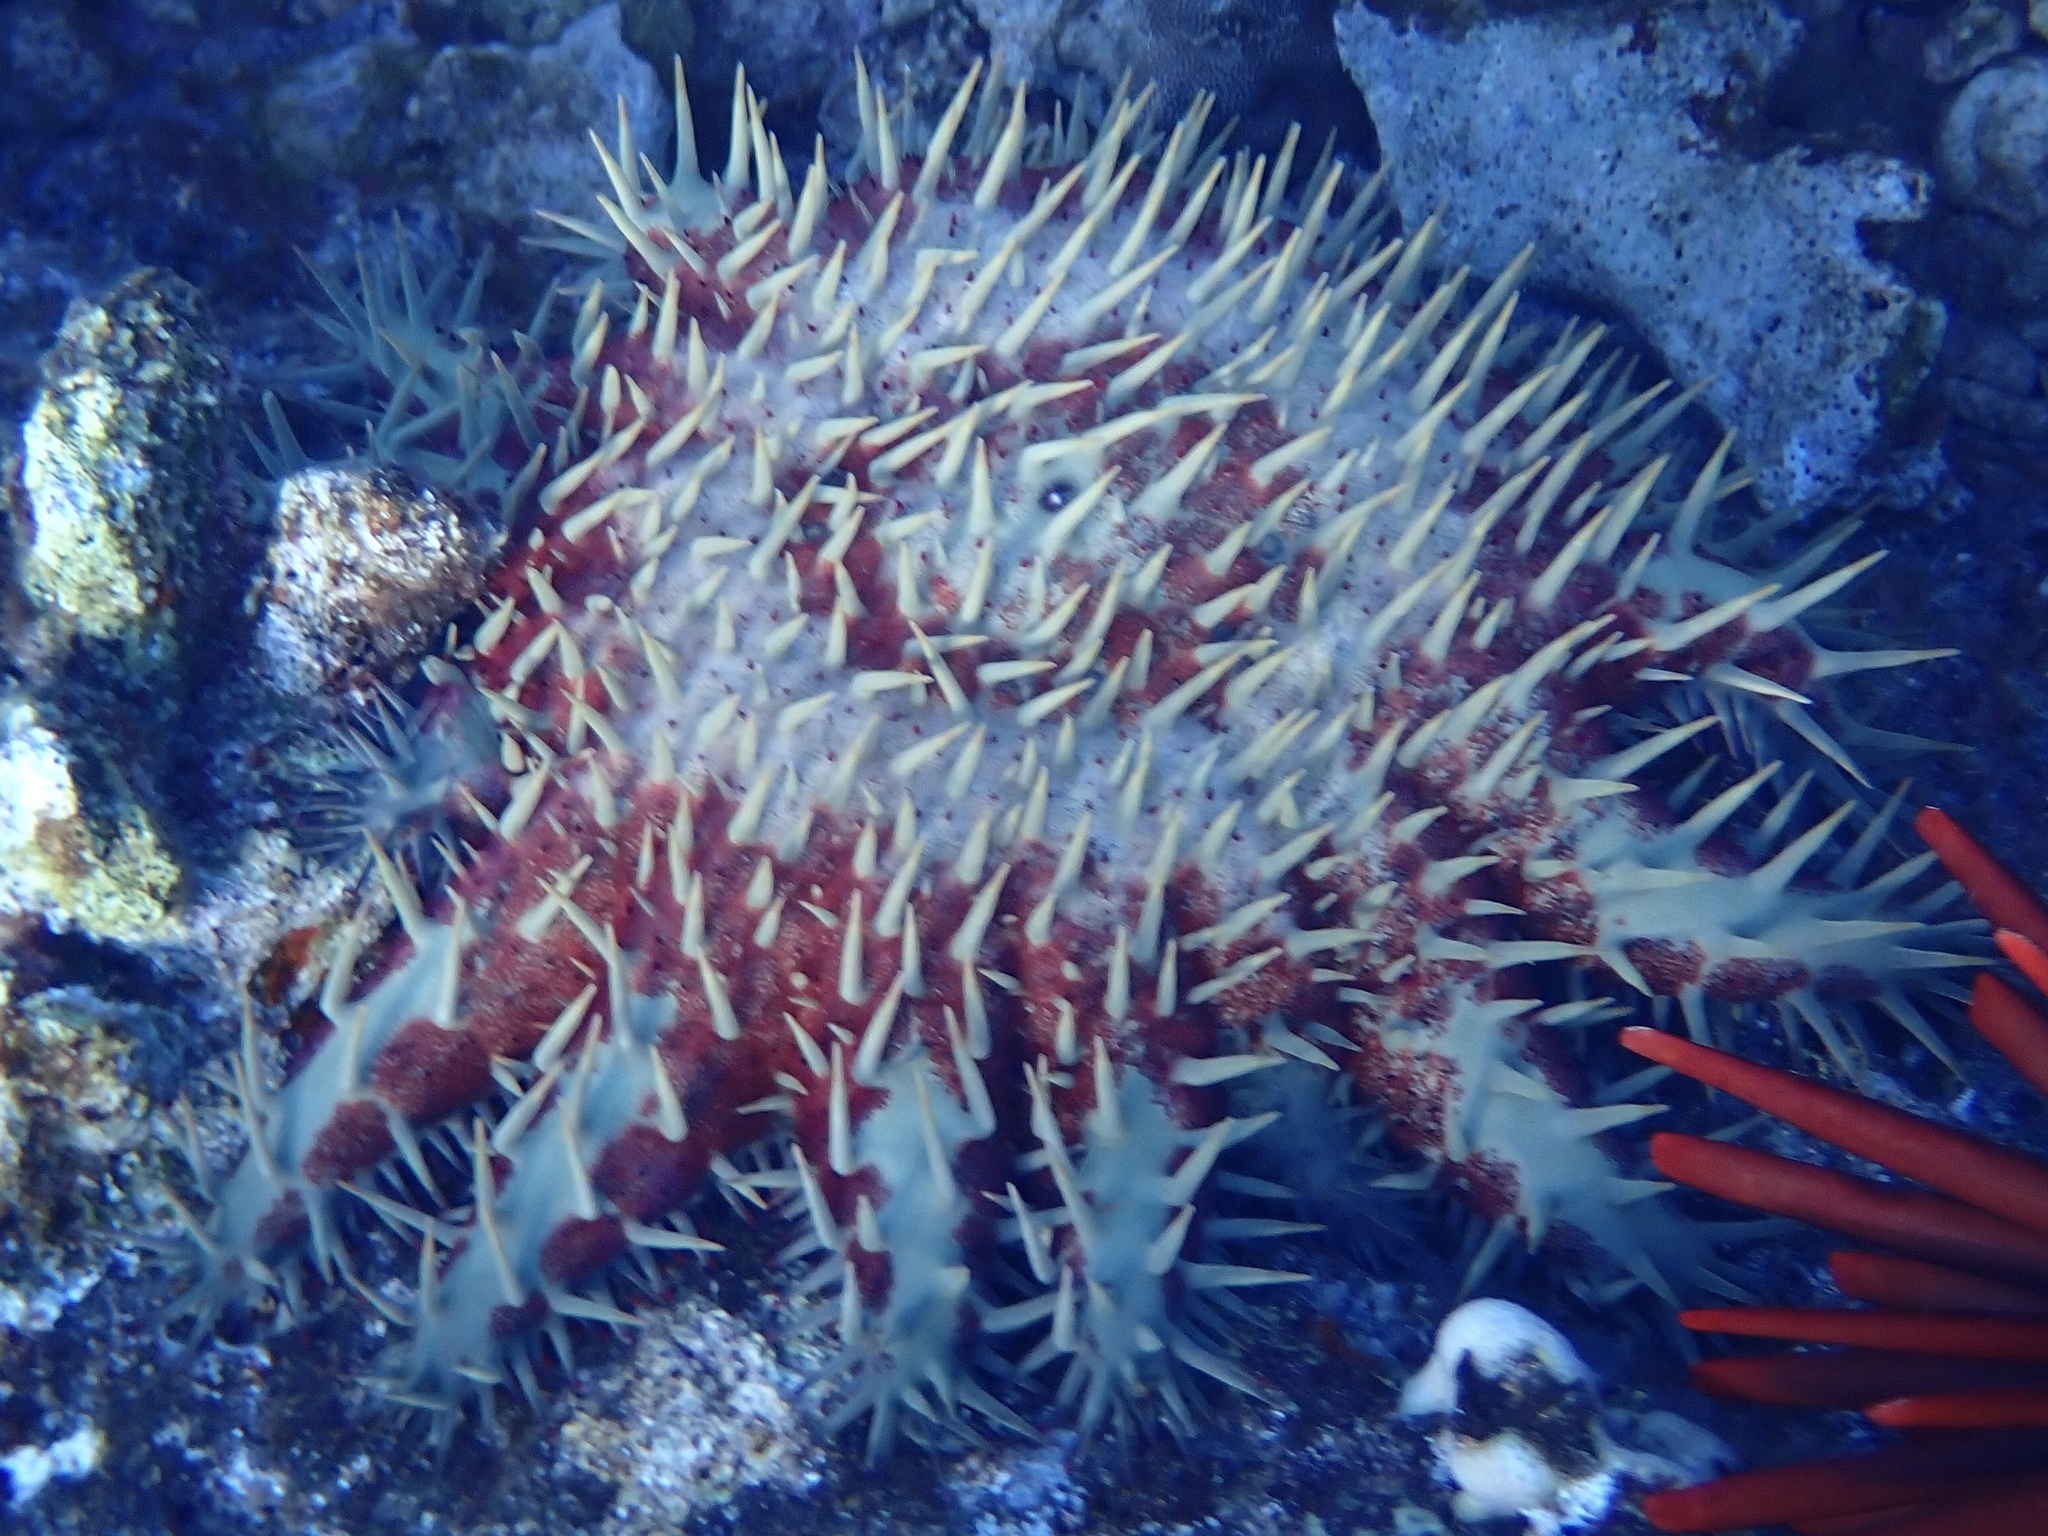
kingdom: Animalia
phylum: Echinodermata
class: Asteroidea
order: Valvatida
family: Acanthasteridae
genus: Acanthaster
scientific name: Acanthaster planci
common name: Crown-of-thorns
